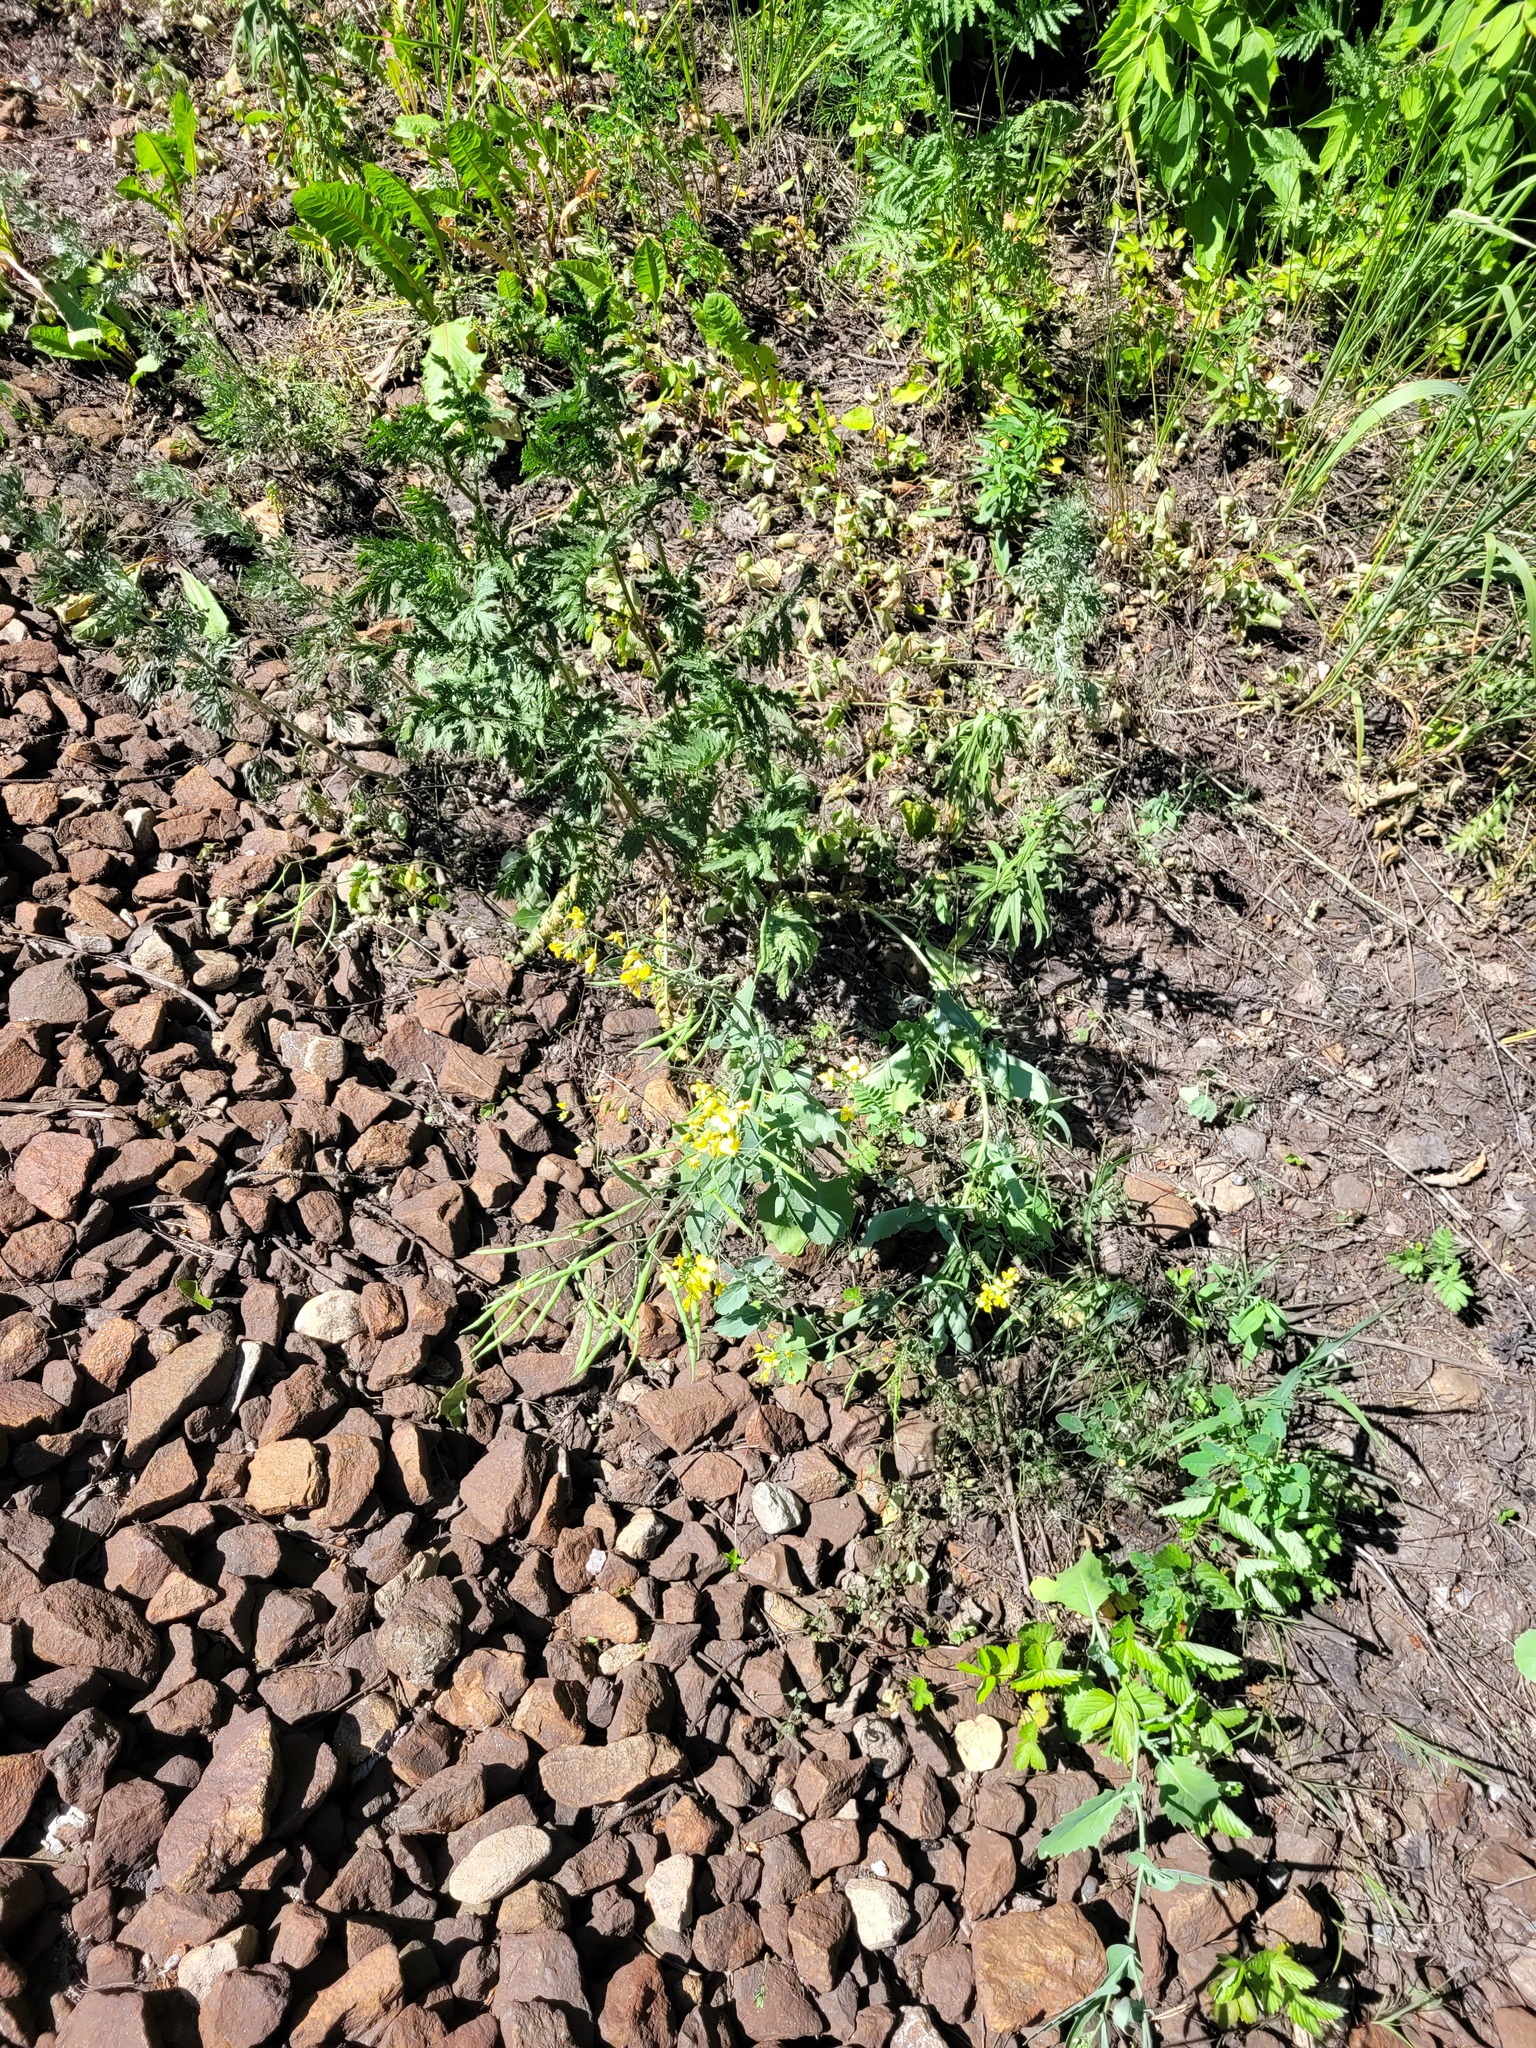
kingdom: Plantae
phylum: Tracheophyta
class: Magnoliopsida
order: Brassicales
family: Brassicaceae
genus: Brassica
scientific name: Brassica napus
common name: Rape
